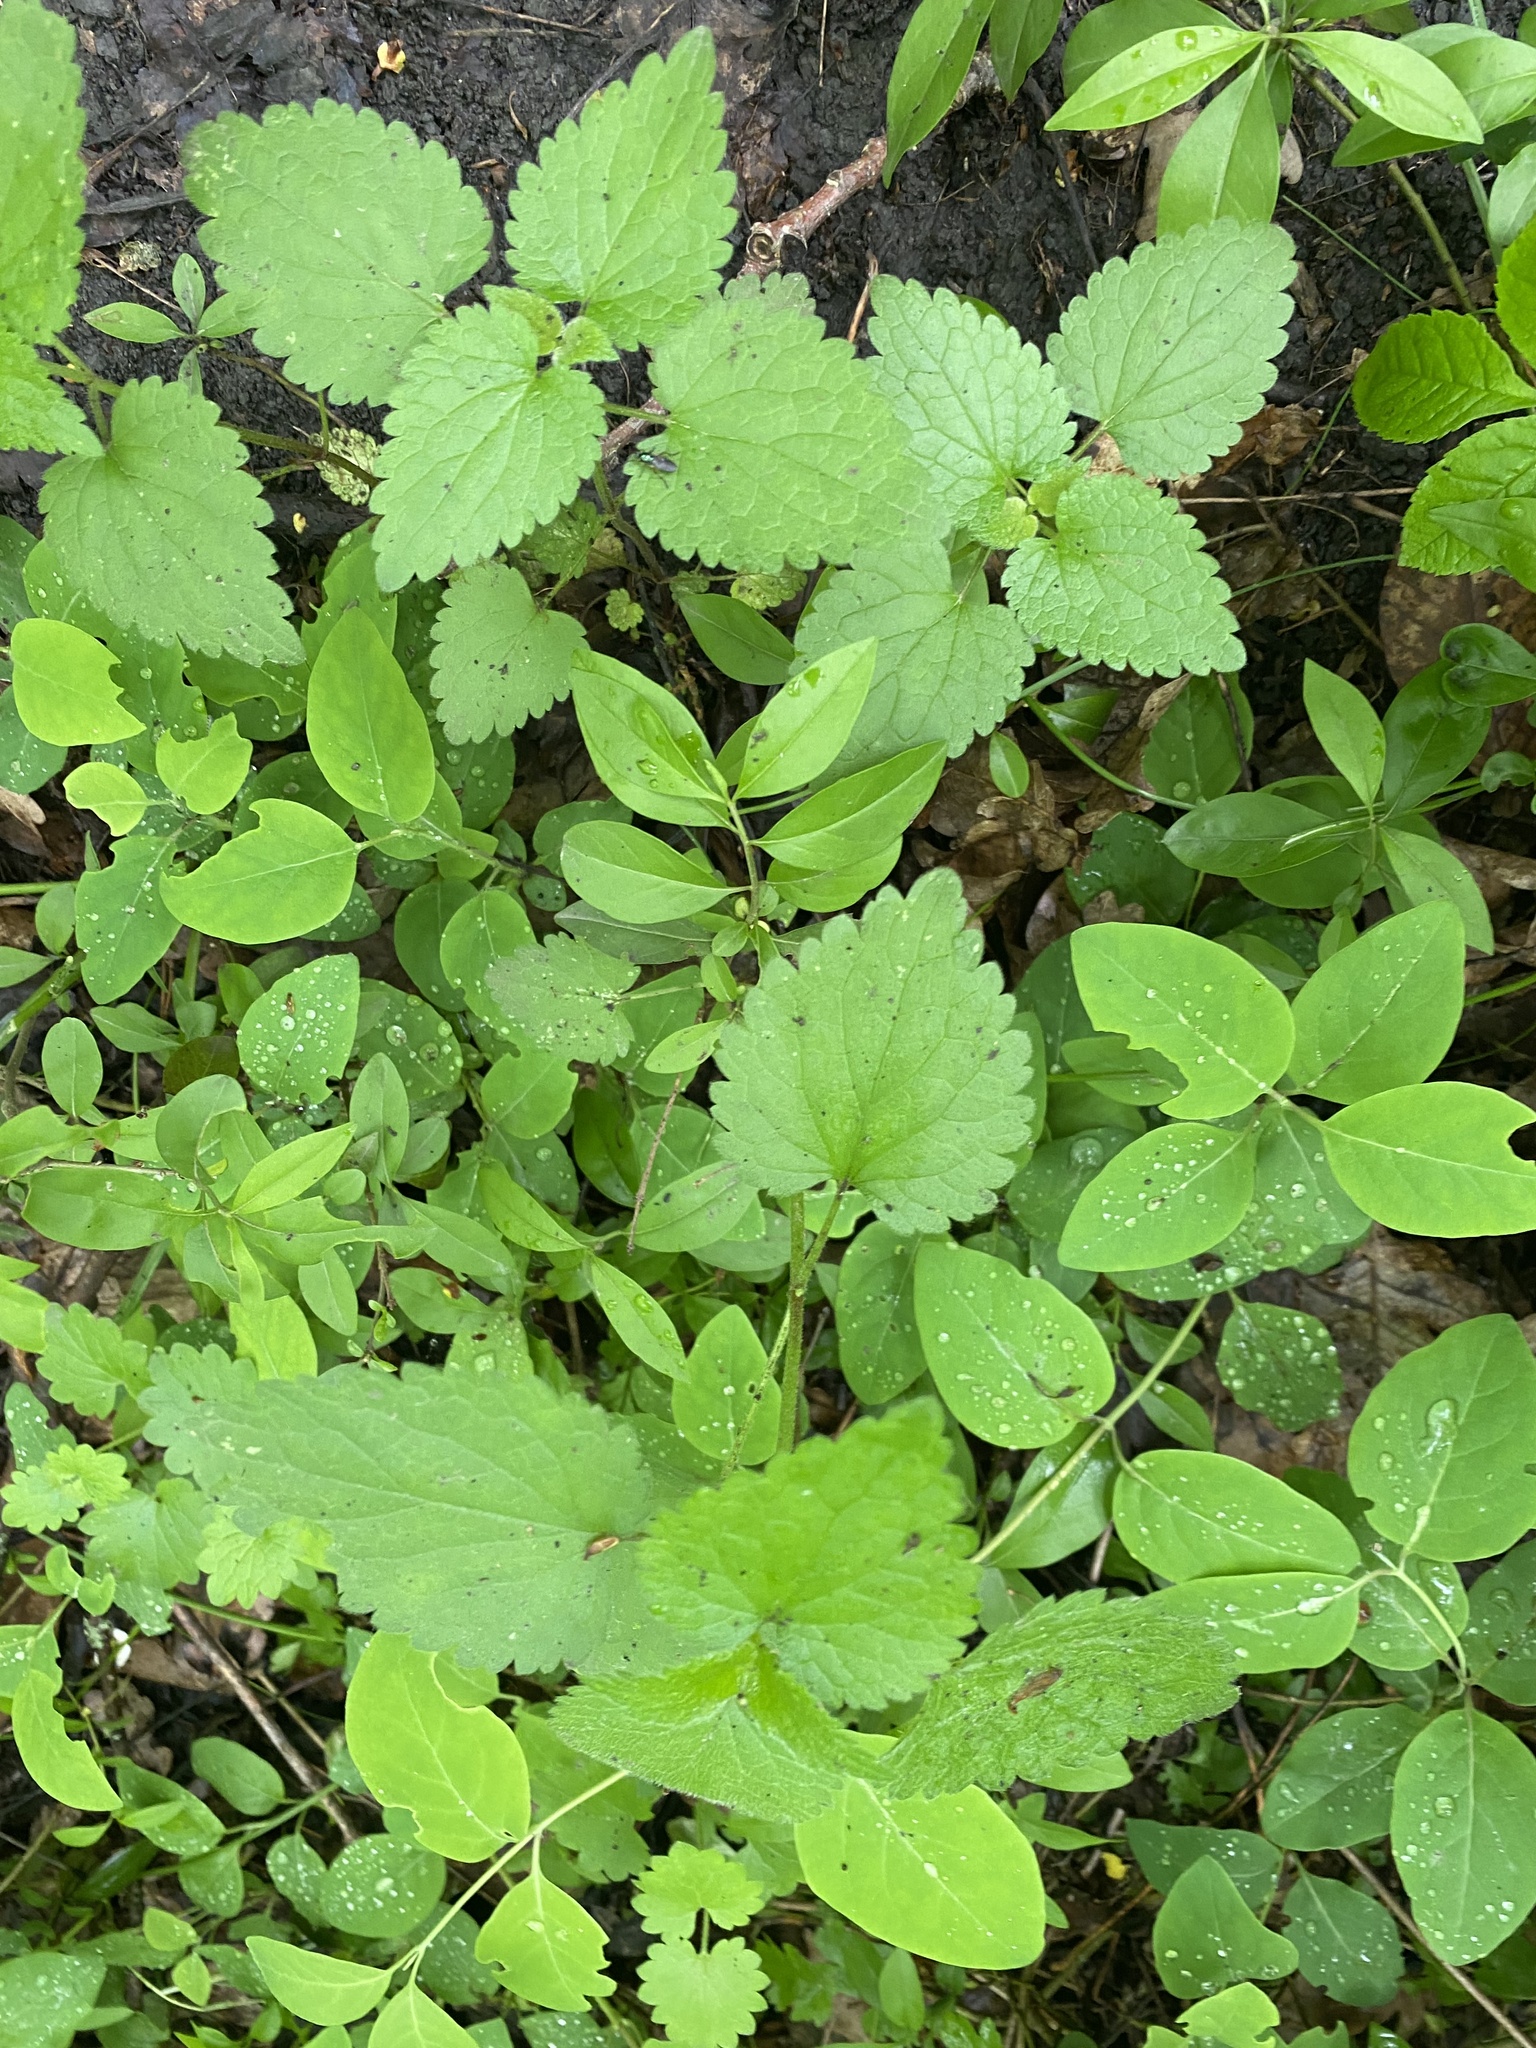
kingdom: Plantae
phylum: Tracheophyta
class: Magnoliopsida
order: Rosales
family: Urticaceae
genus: Urtica
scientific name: Urtica dioica
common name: Common nettle
